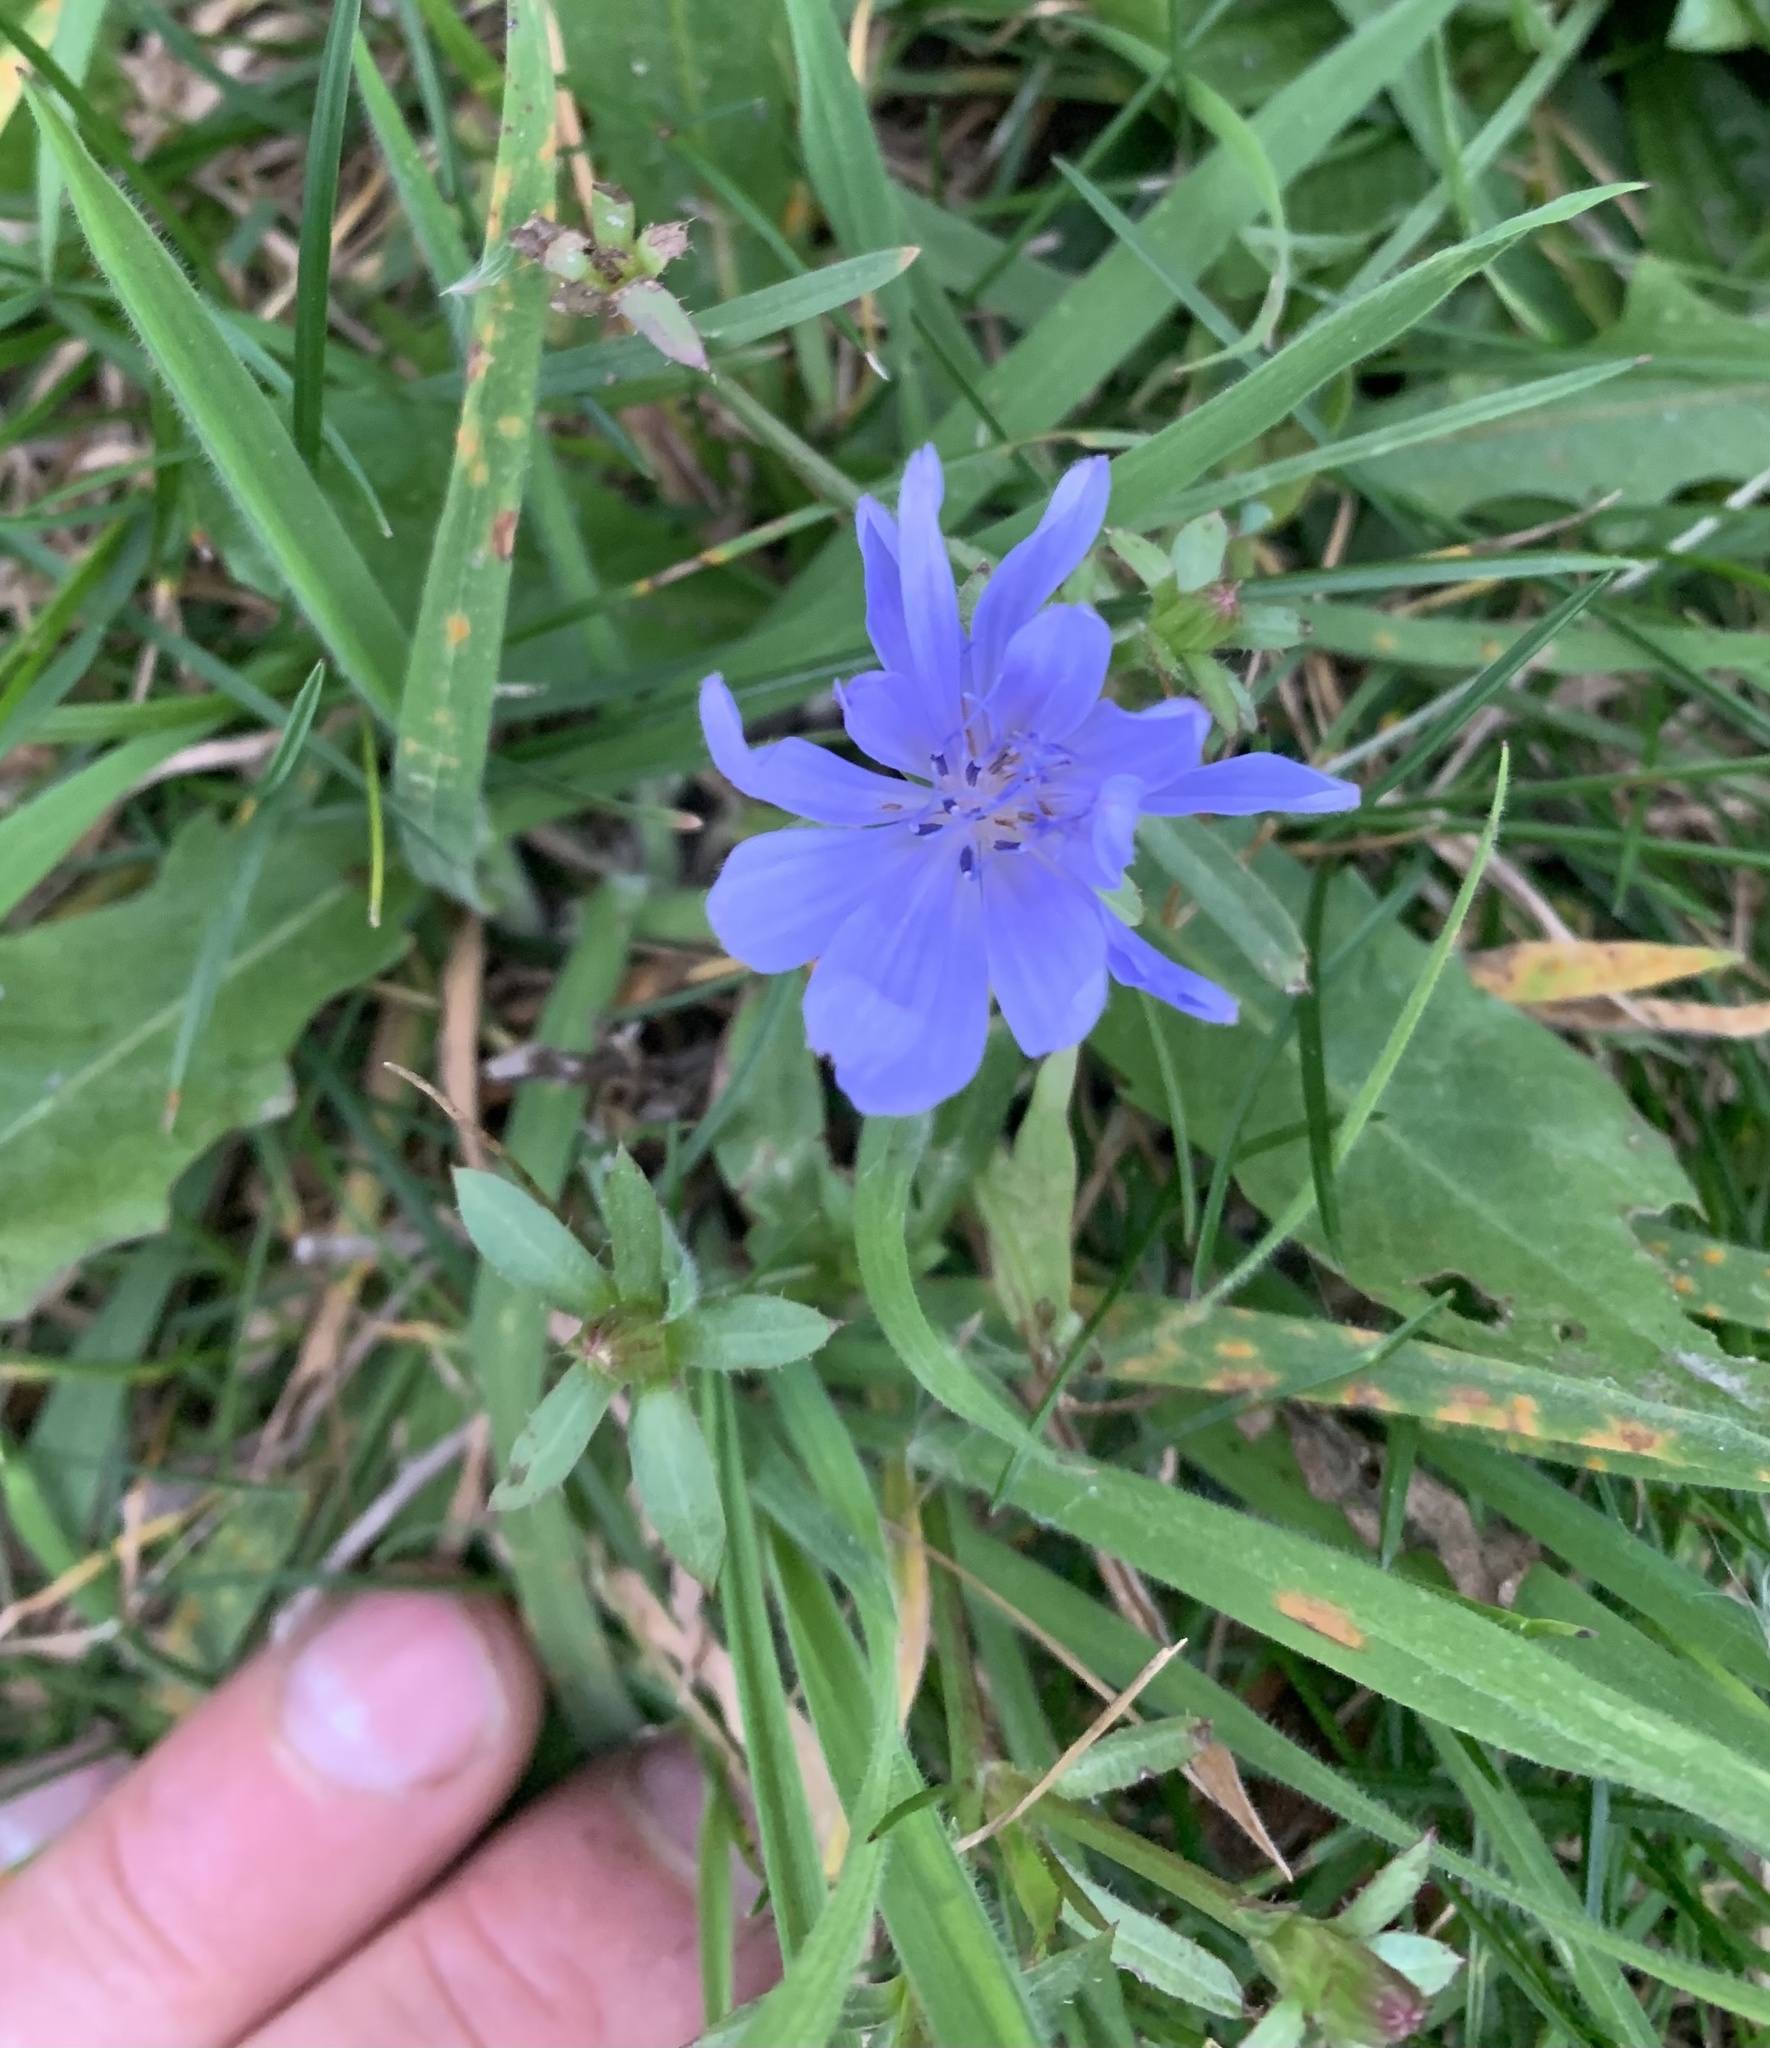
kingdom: Plantae
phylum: Tracheophyta
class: Magnoliopsida
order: Asterales
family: Asteraceae
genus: Cichorium
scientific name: Cichorium intybus
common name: Chicory
